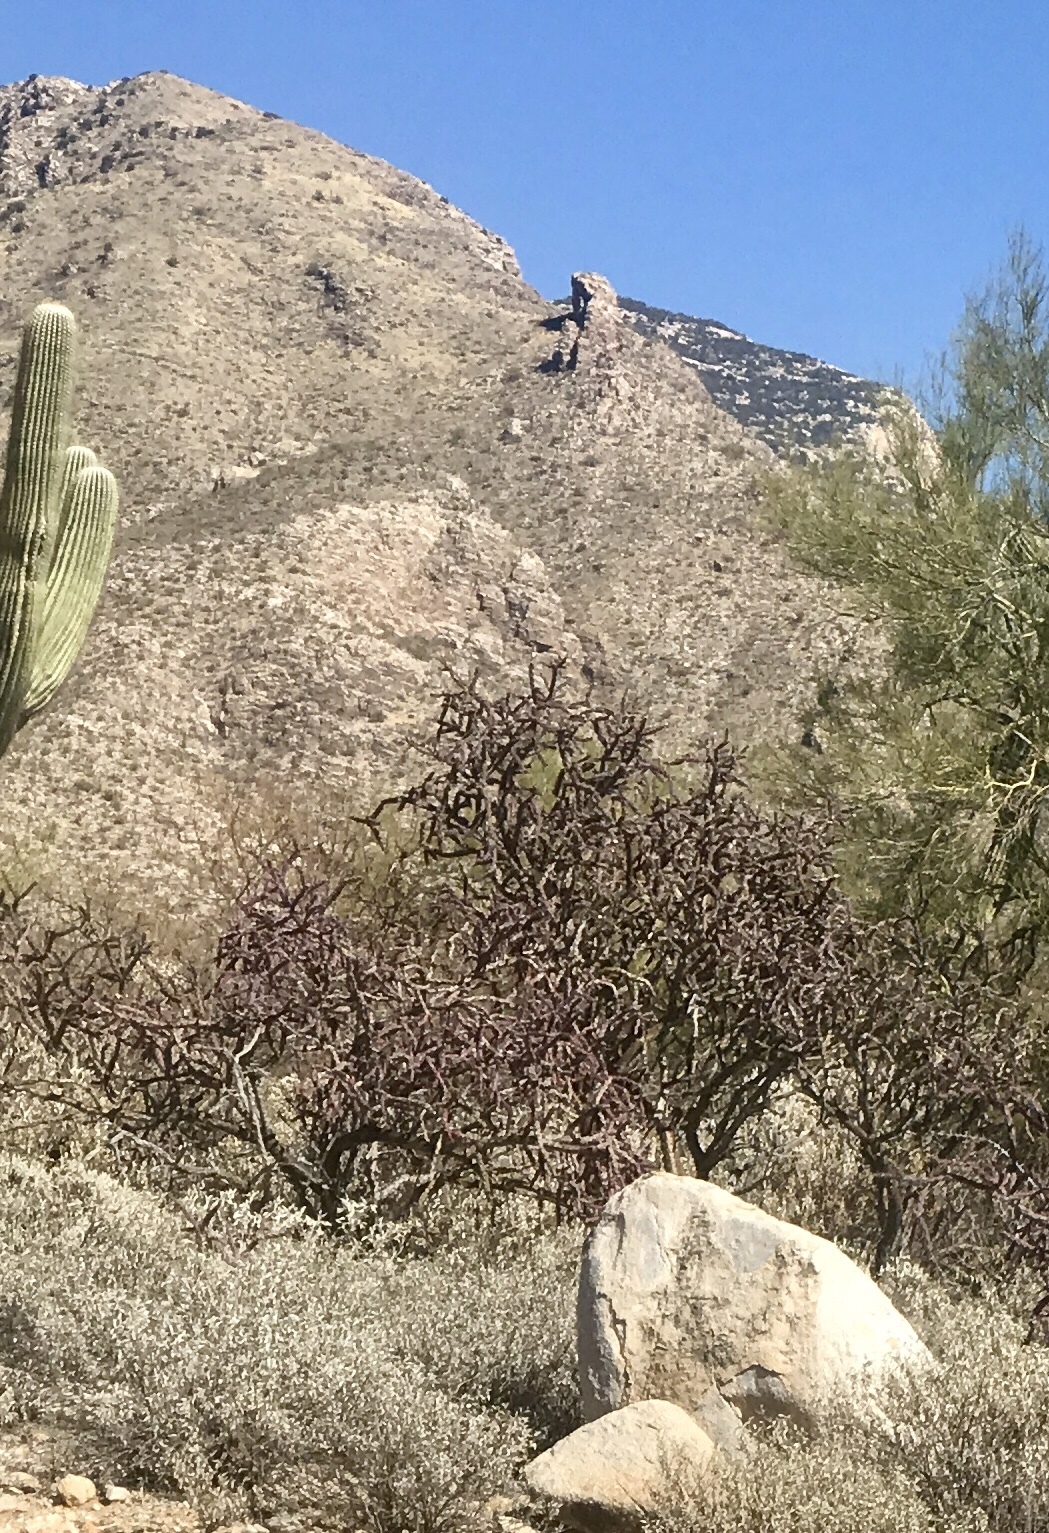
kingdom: Plantae
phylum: Tracheophyta
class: Magnoliopsida
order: Caryophyllales
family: Cactaceae
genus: Cylindropuntia
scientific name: Cylindropuntia thurberi
